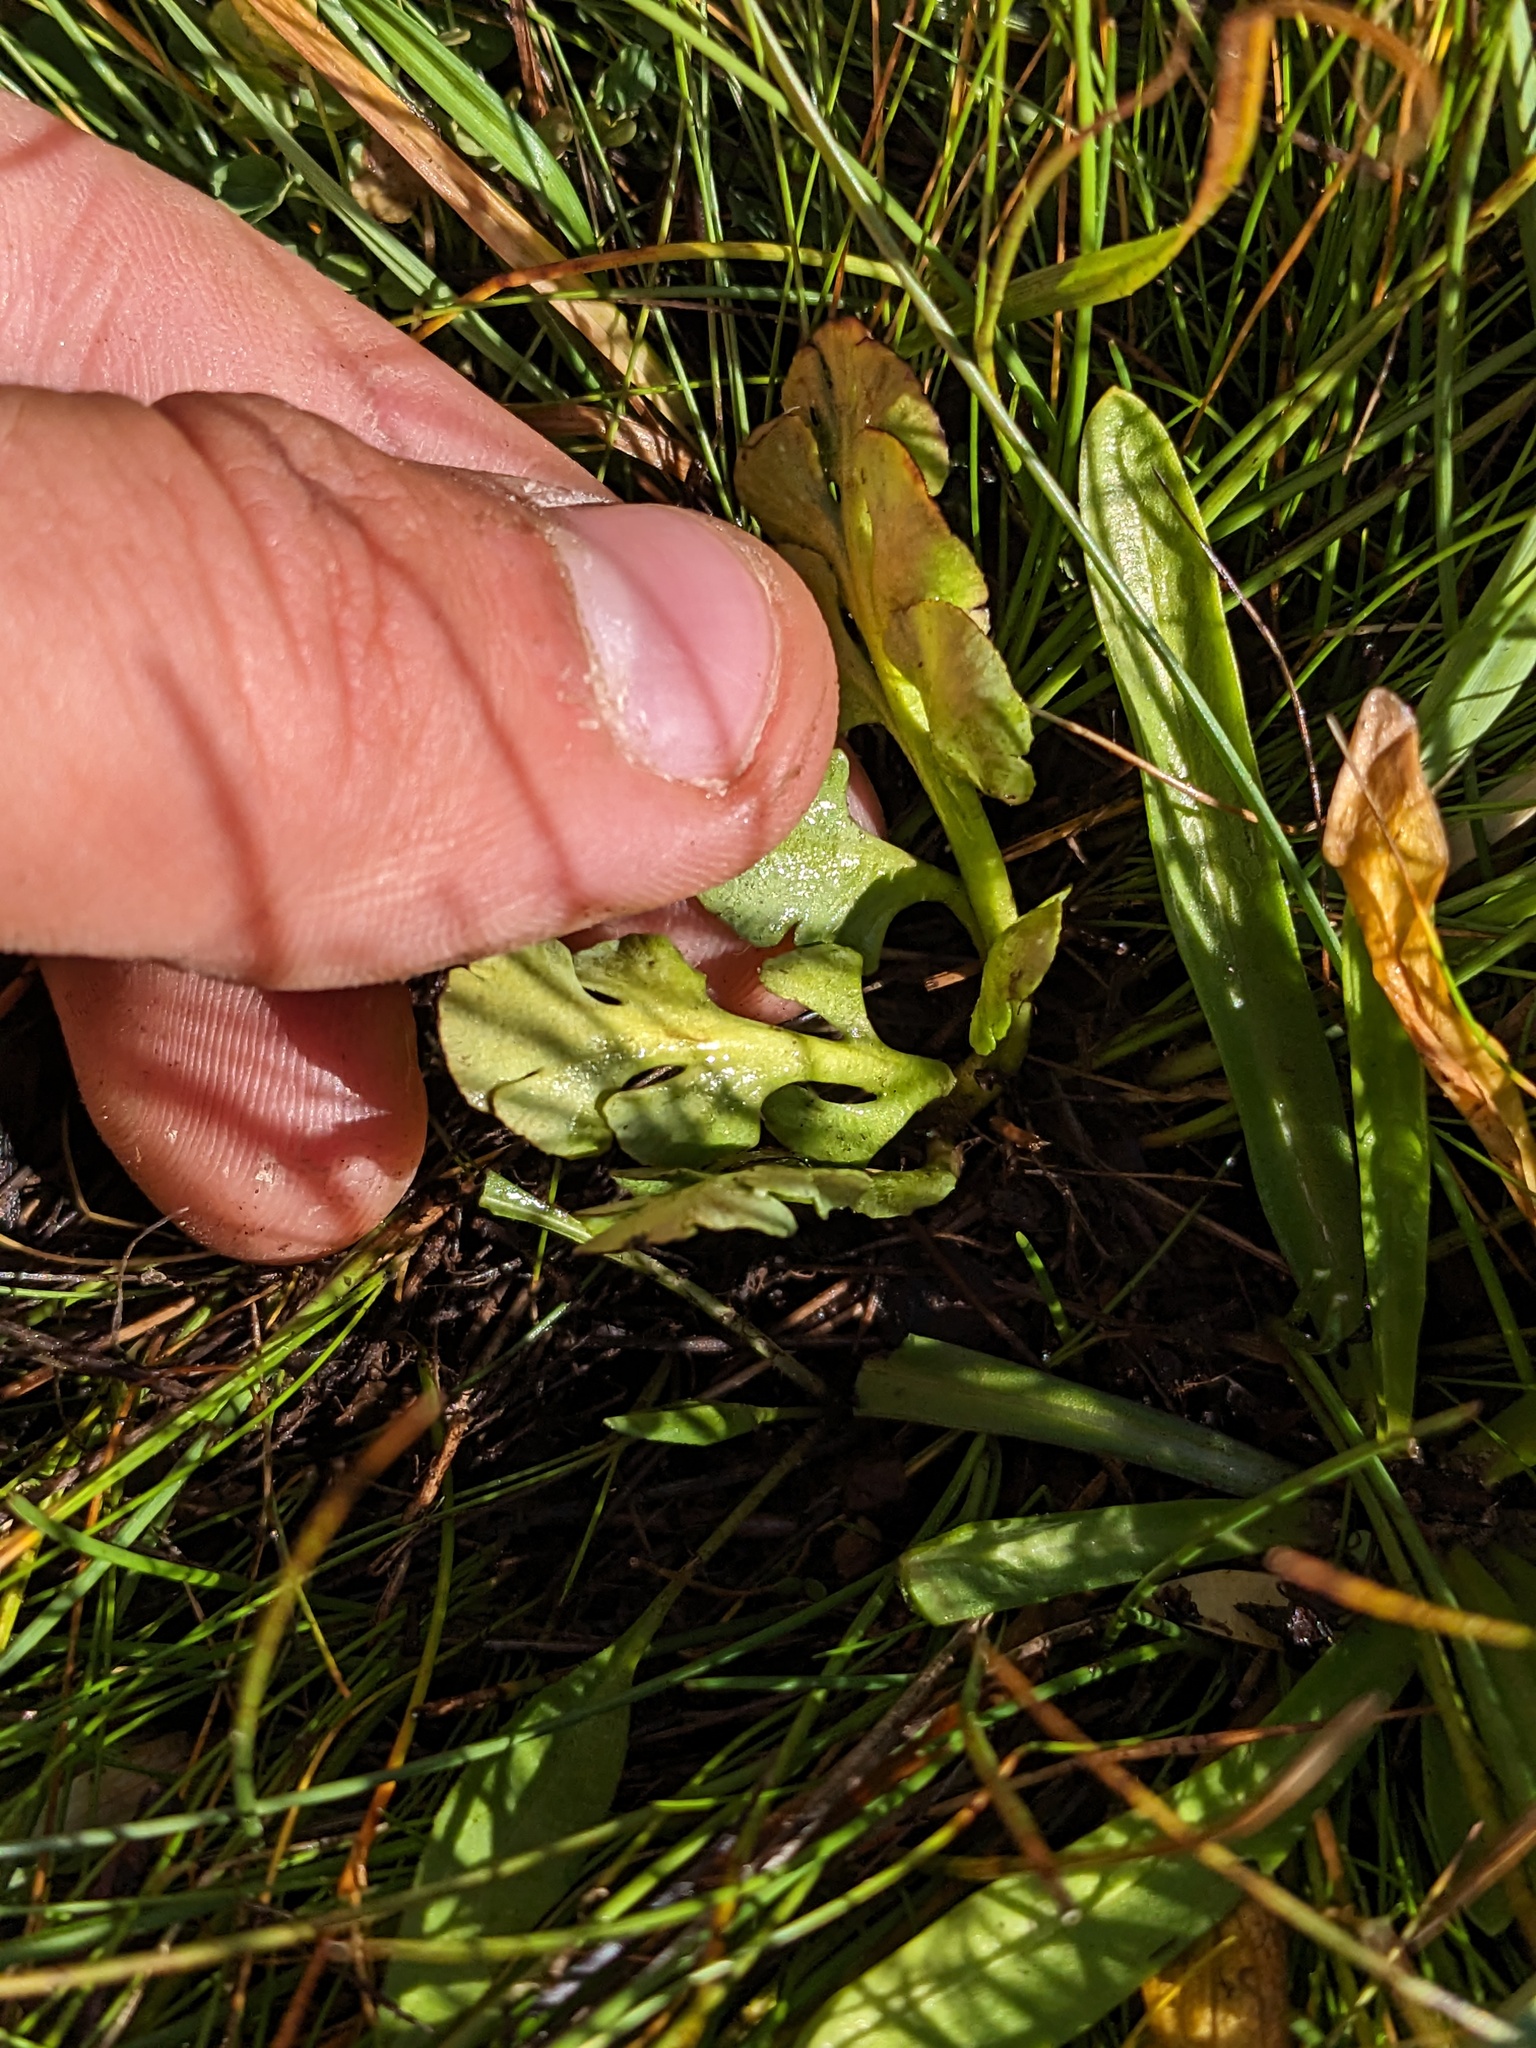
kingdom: Plantae
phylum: Tracheophyta
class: Polypodiopsida
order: Ophioglossales
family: Ophioglossaceae
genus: Botrychium
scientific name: Botrychium simplex
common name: Least moonwort
